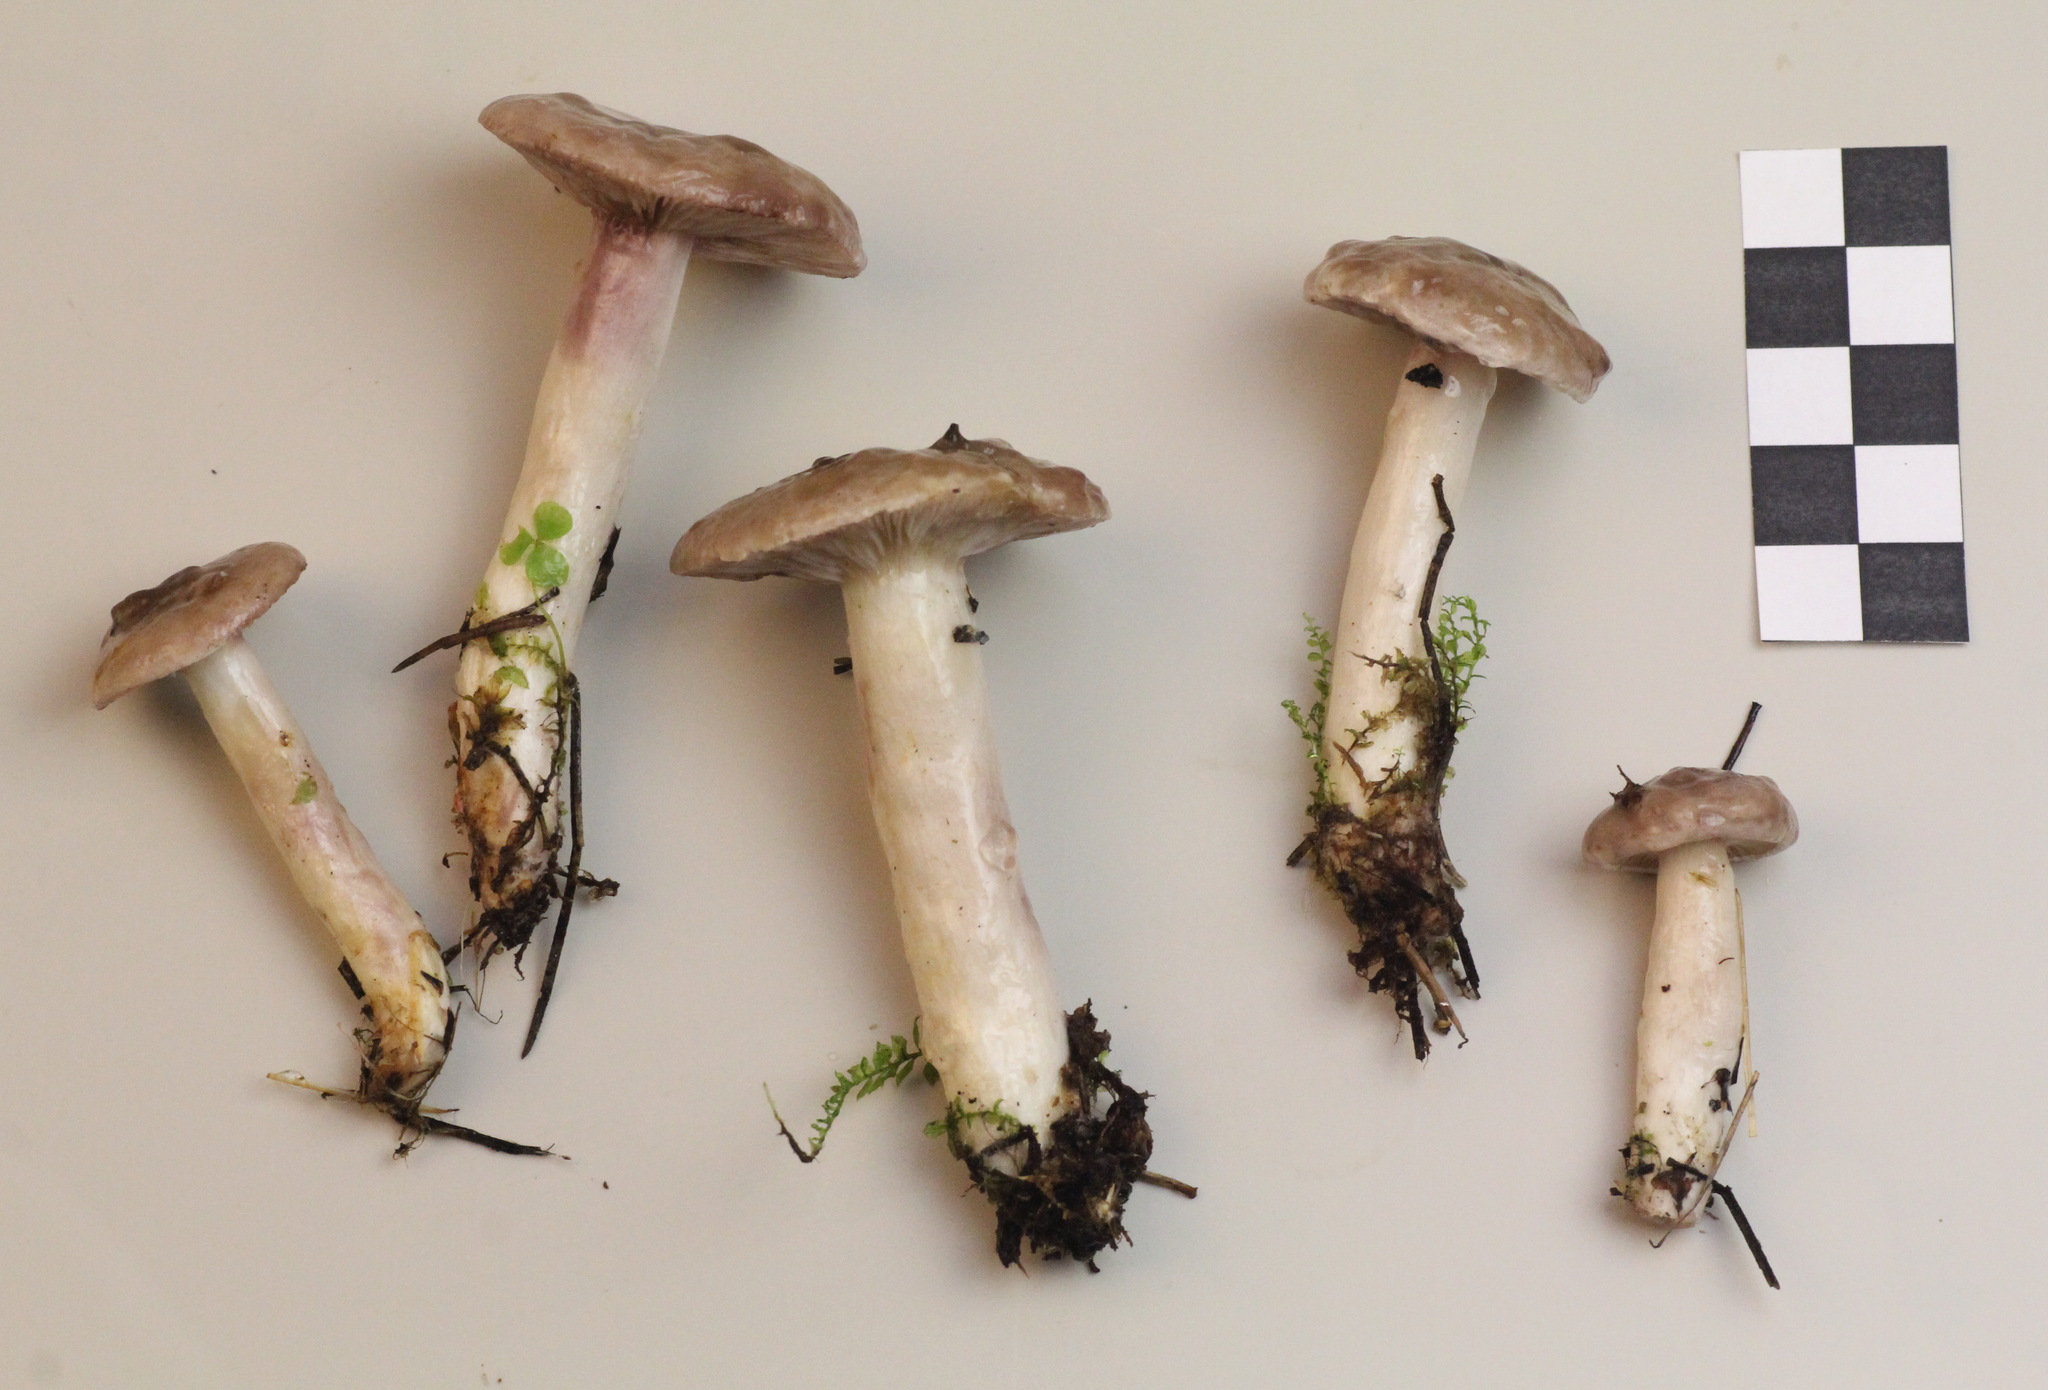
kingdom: Fungi
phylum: Basidiomycota
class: Agaricomycetes
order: Russulales
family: Russulaceae
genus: Lactarius
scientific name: Lactarius uvidus
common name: Shiner milkcap
